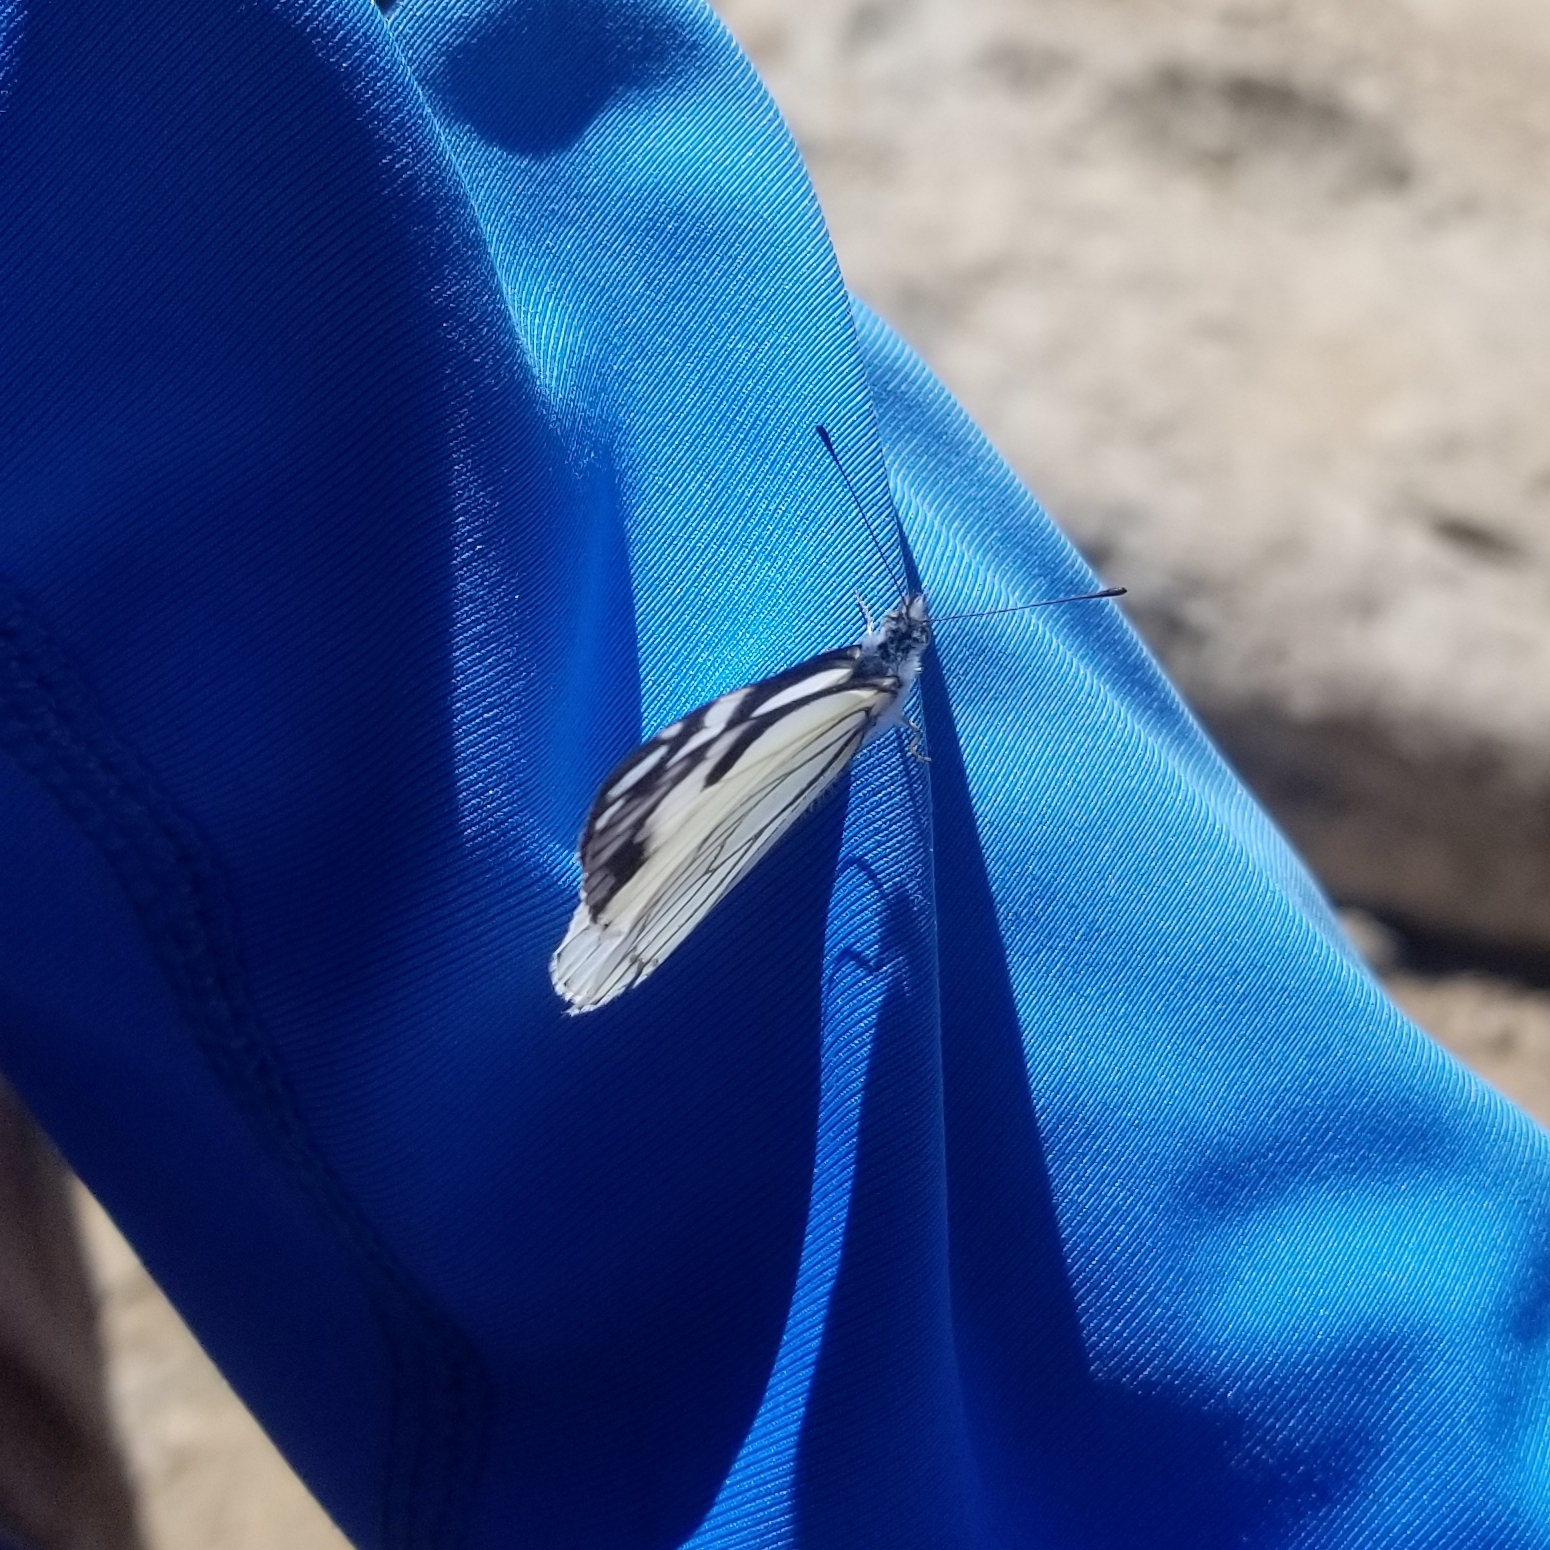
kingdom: Animalia
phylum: Arthropoda
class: Insecta
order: Lepidoptera
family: Pieridae
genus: Neophasia
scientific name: Neophasia menapia
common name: Pine white
